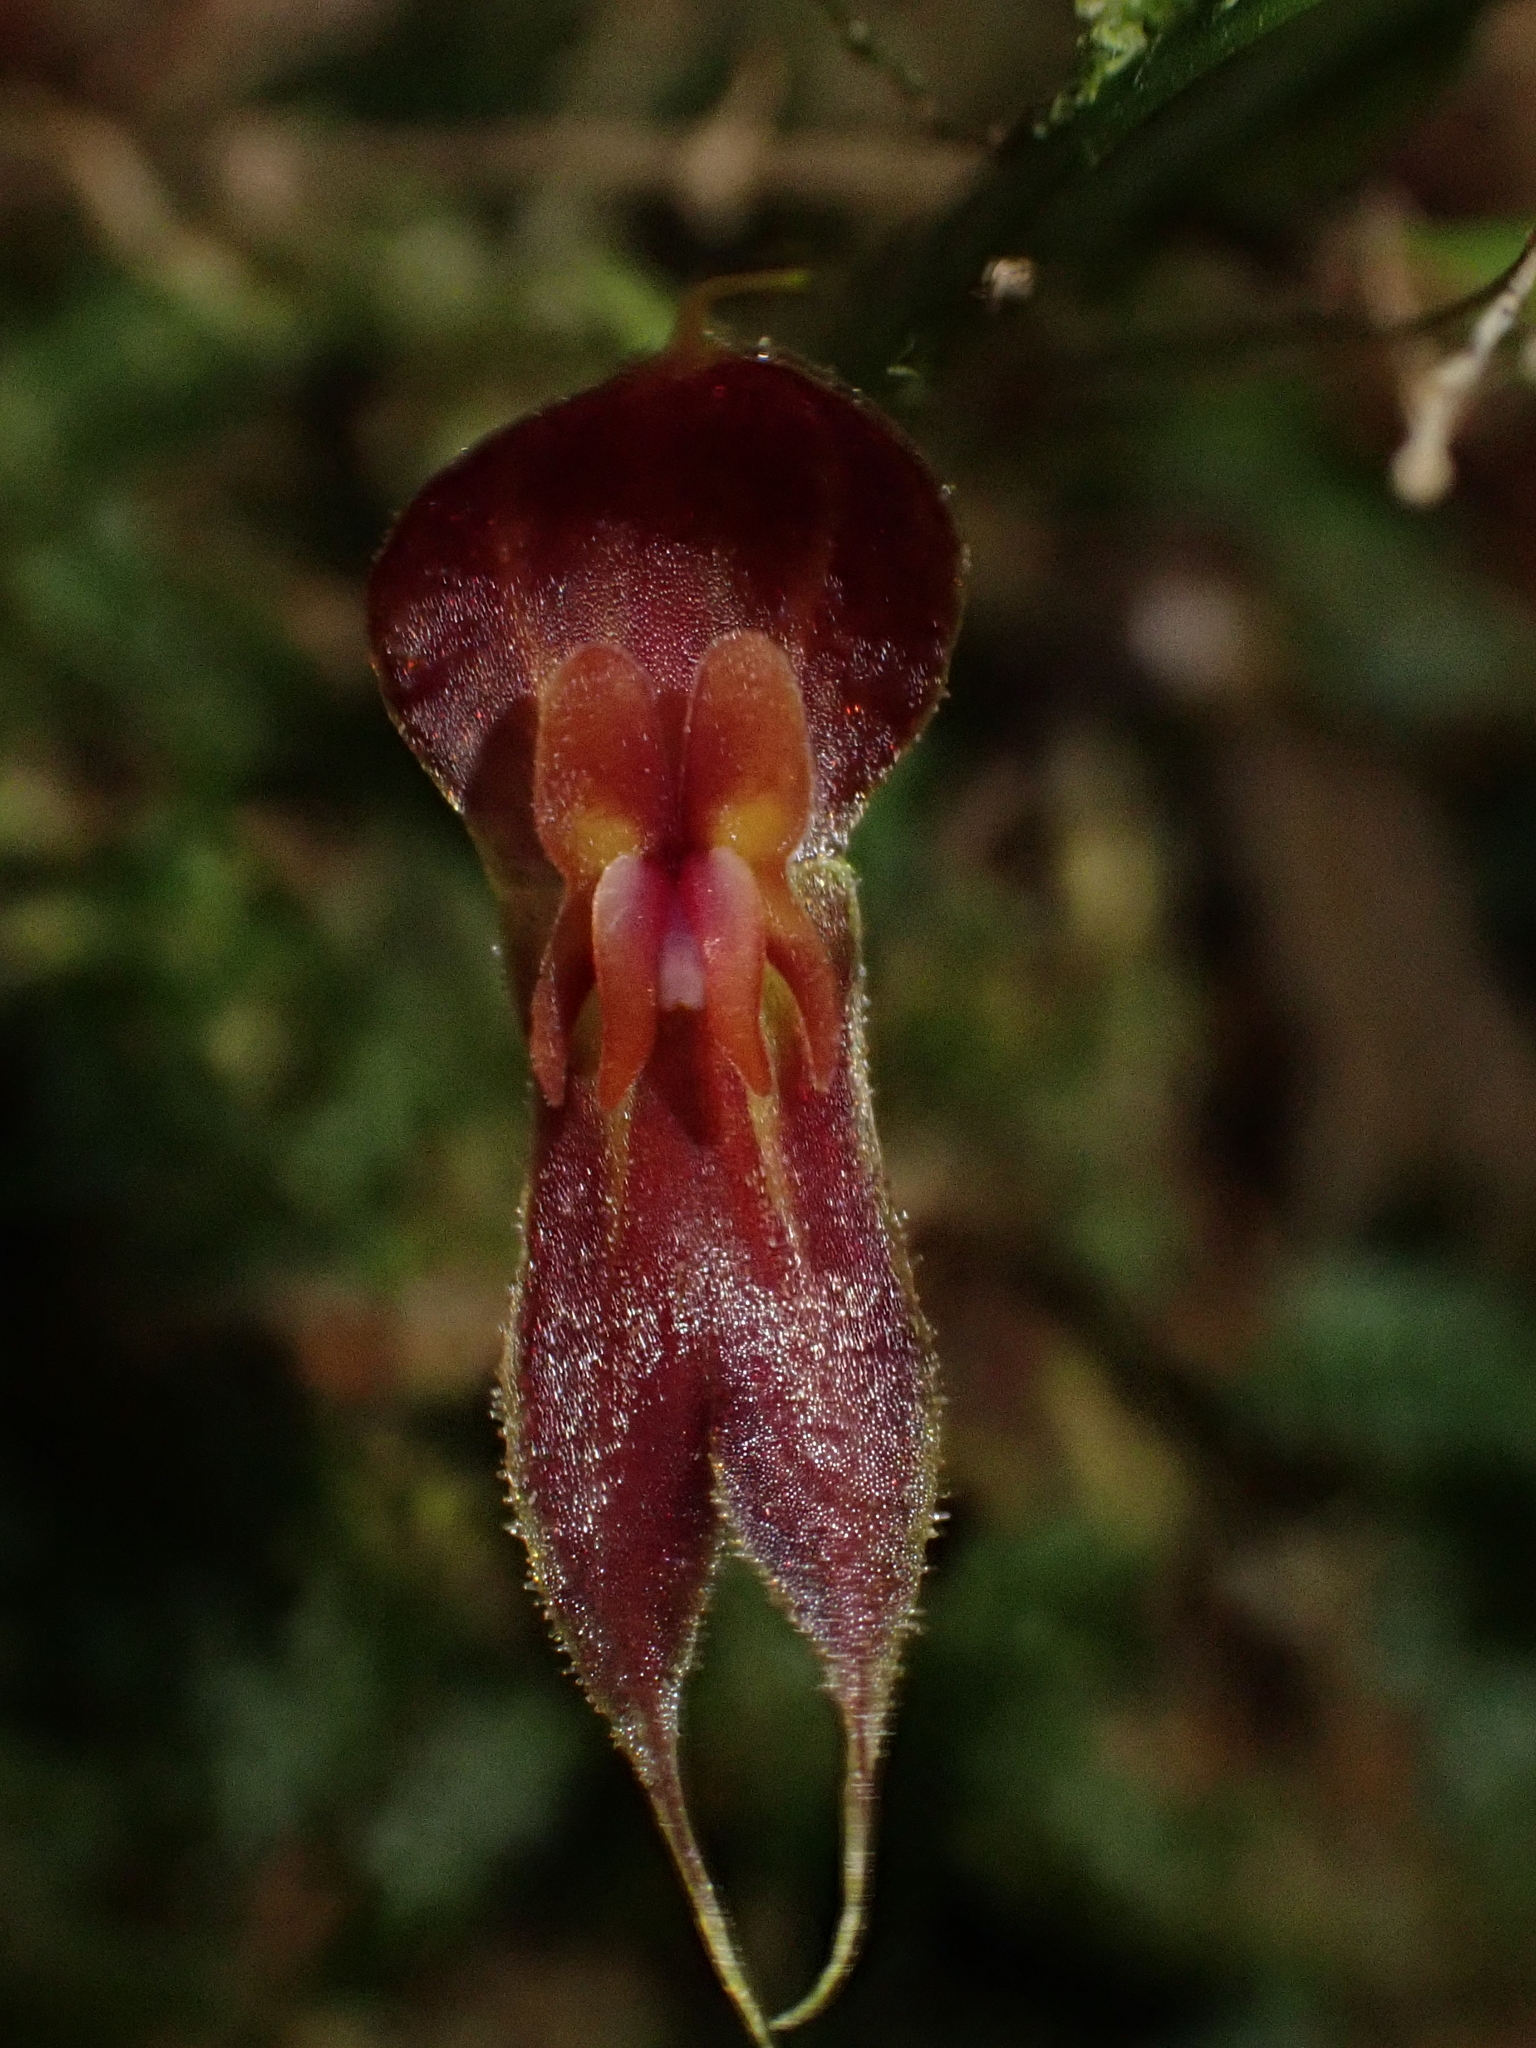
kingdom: Plantae
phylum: Tracheophyta
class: Liliopsida
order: Asparagales
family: Orchidaceae
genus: Lepanthes
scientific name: Lepanthes corkyae
